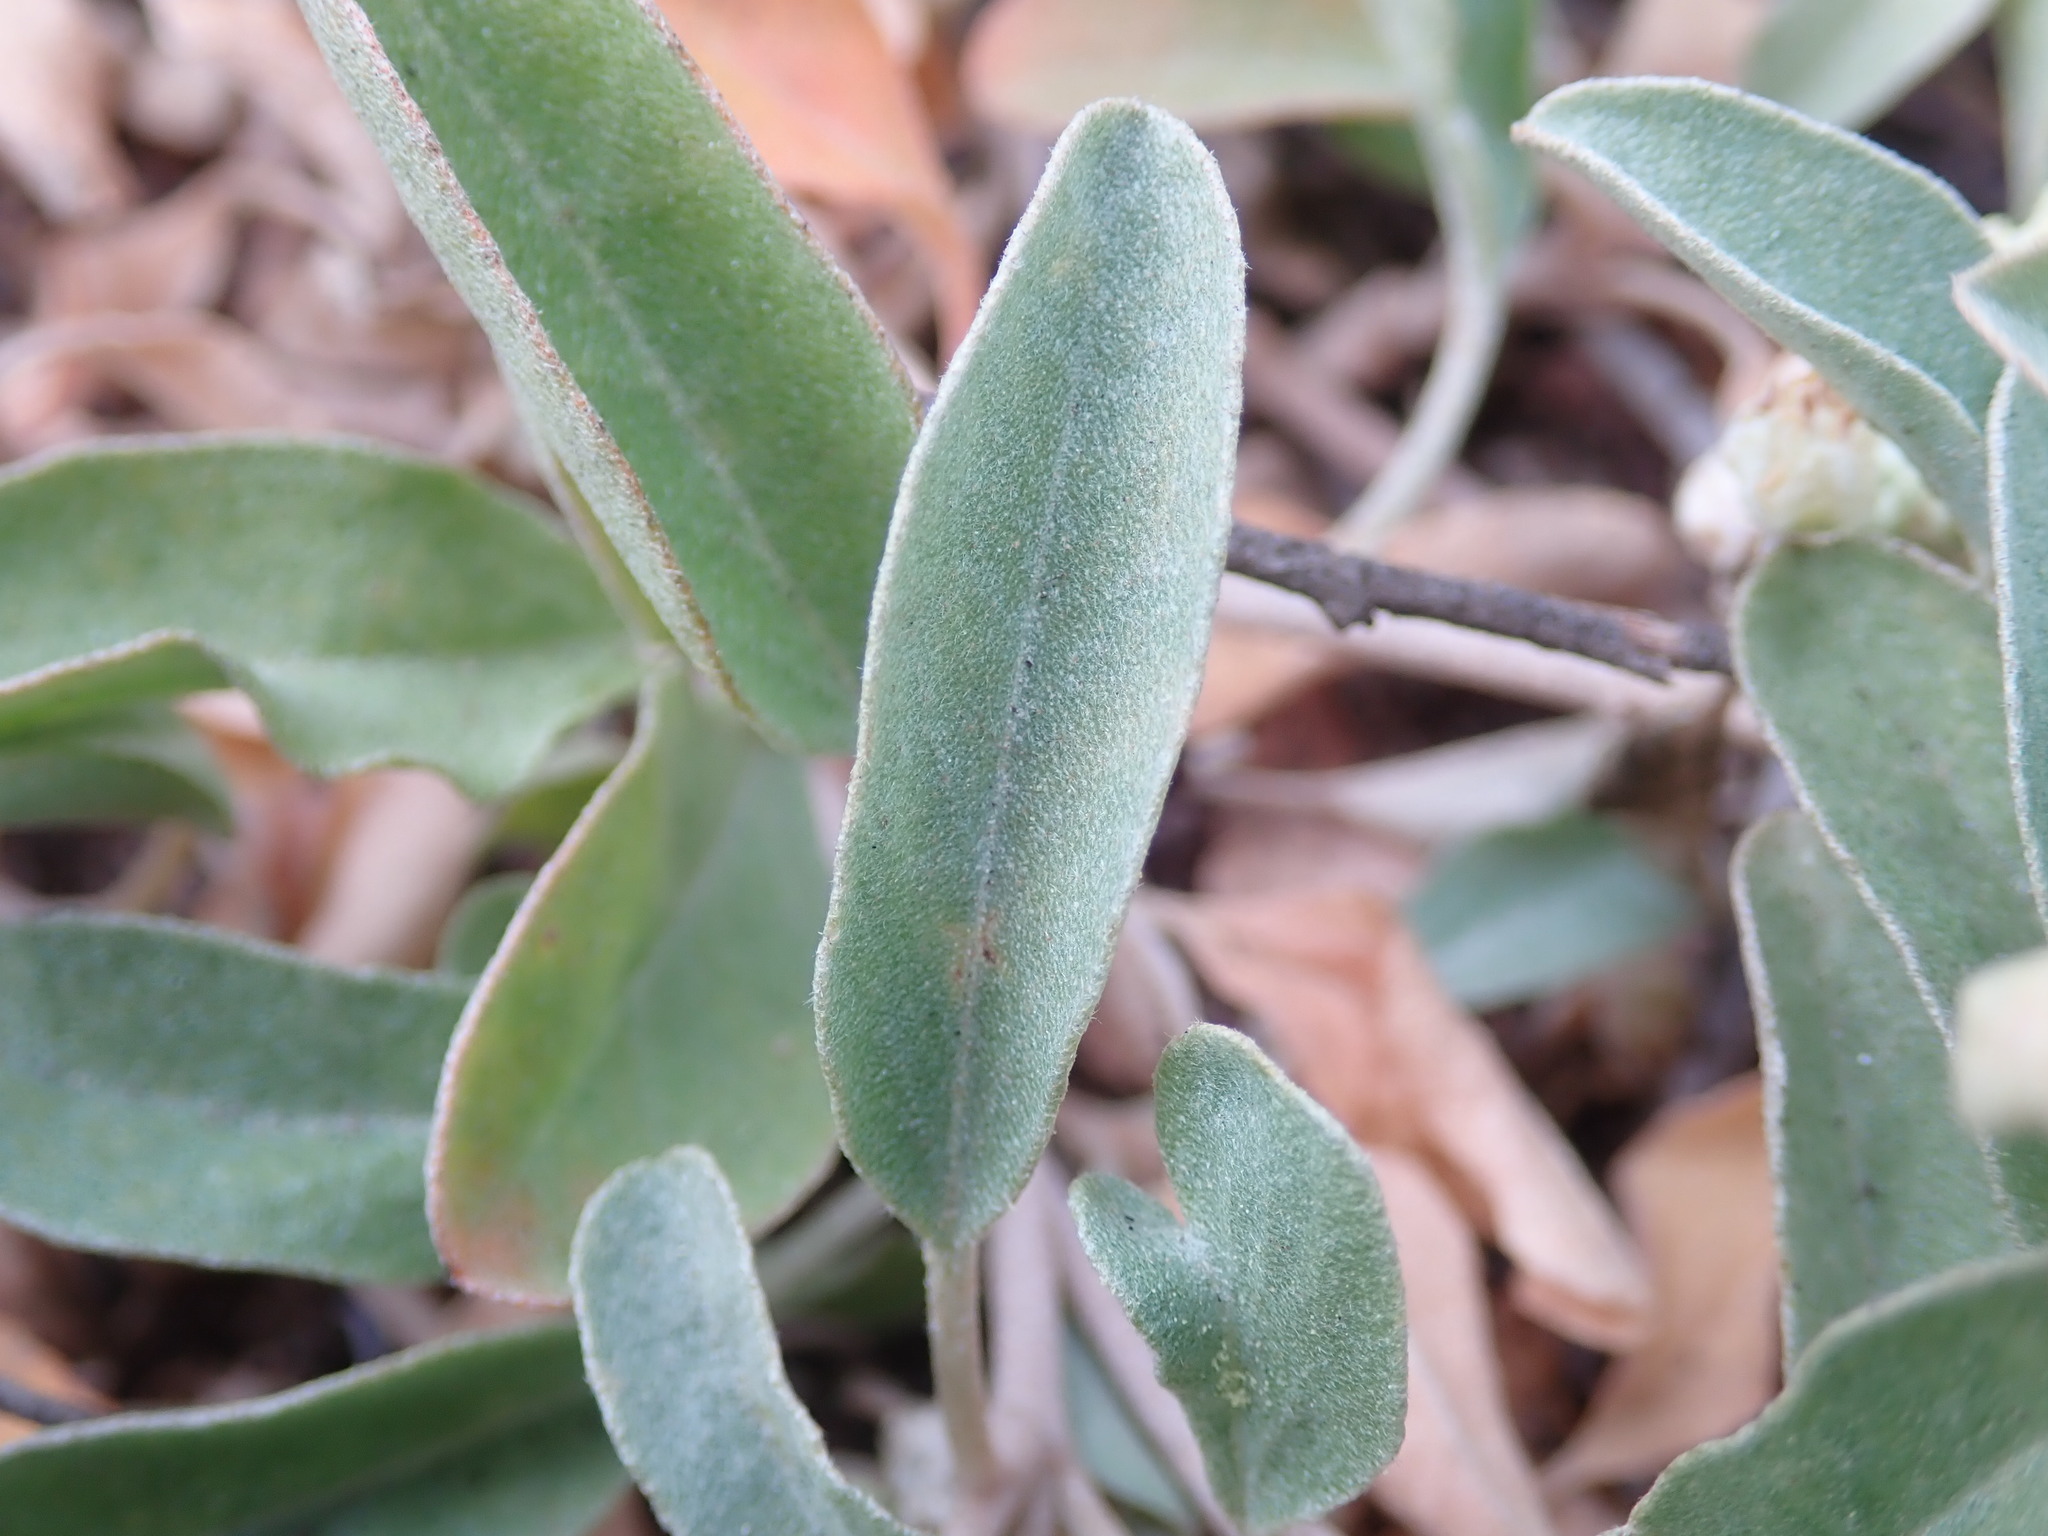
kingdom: Plantae
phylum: Tracheophyta
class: Magnoliopsida
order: Malpighiales
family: Euphorbiaceae
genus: Croton
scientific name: Croton californicus
